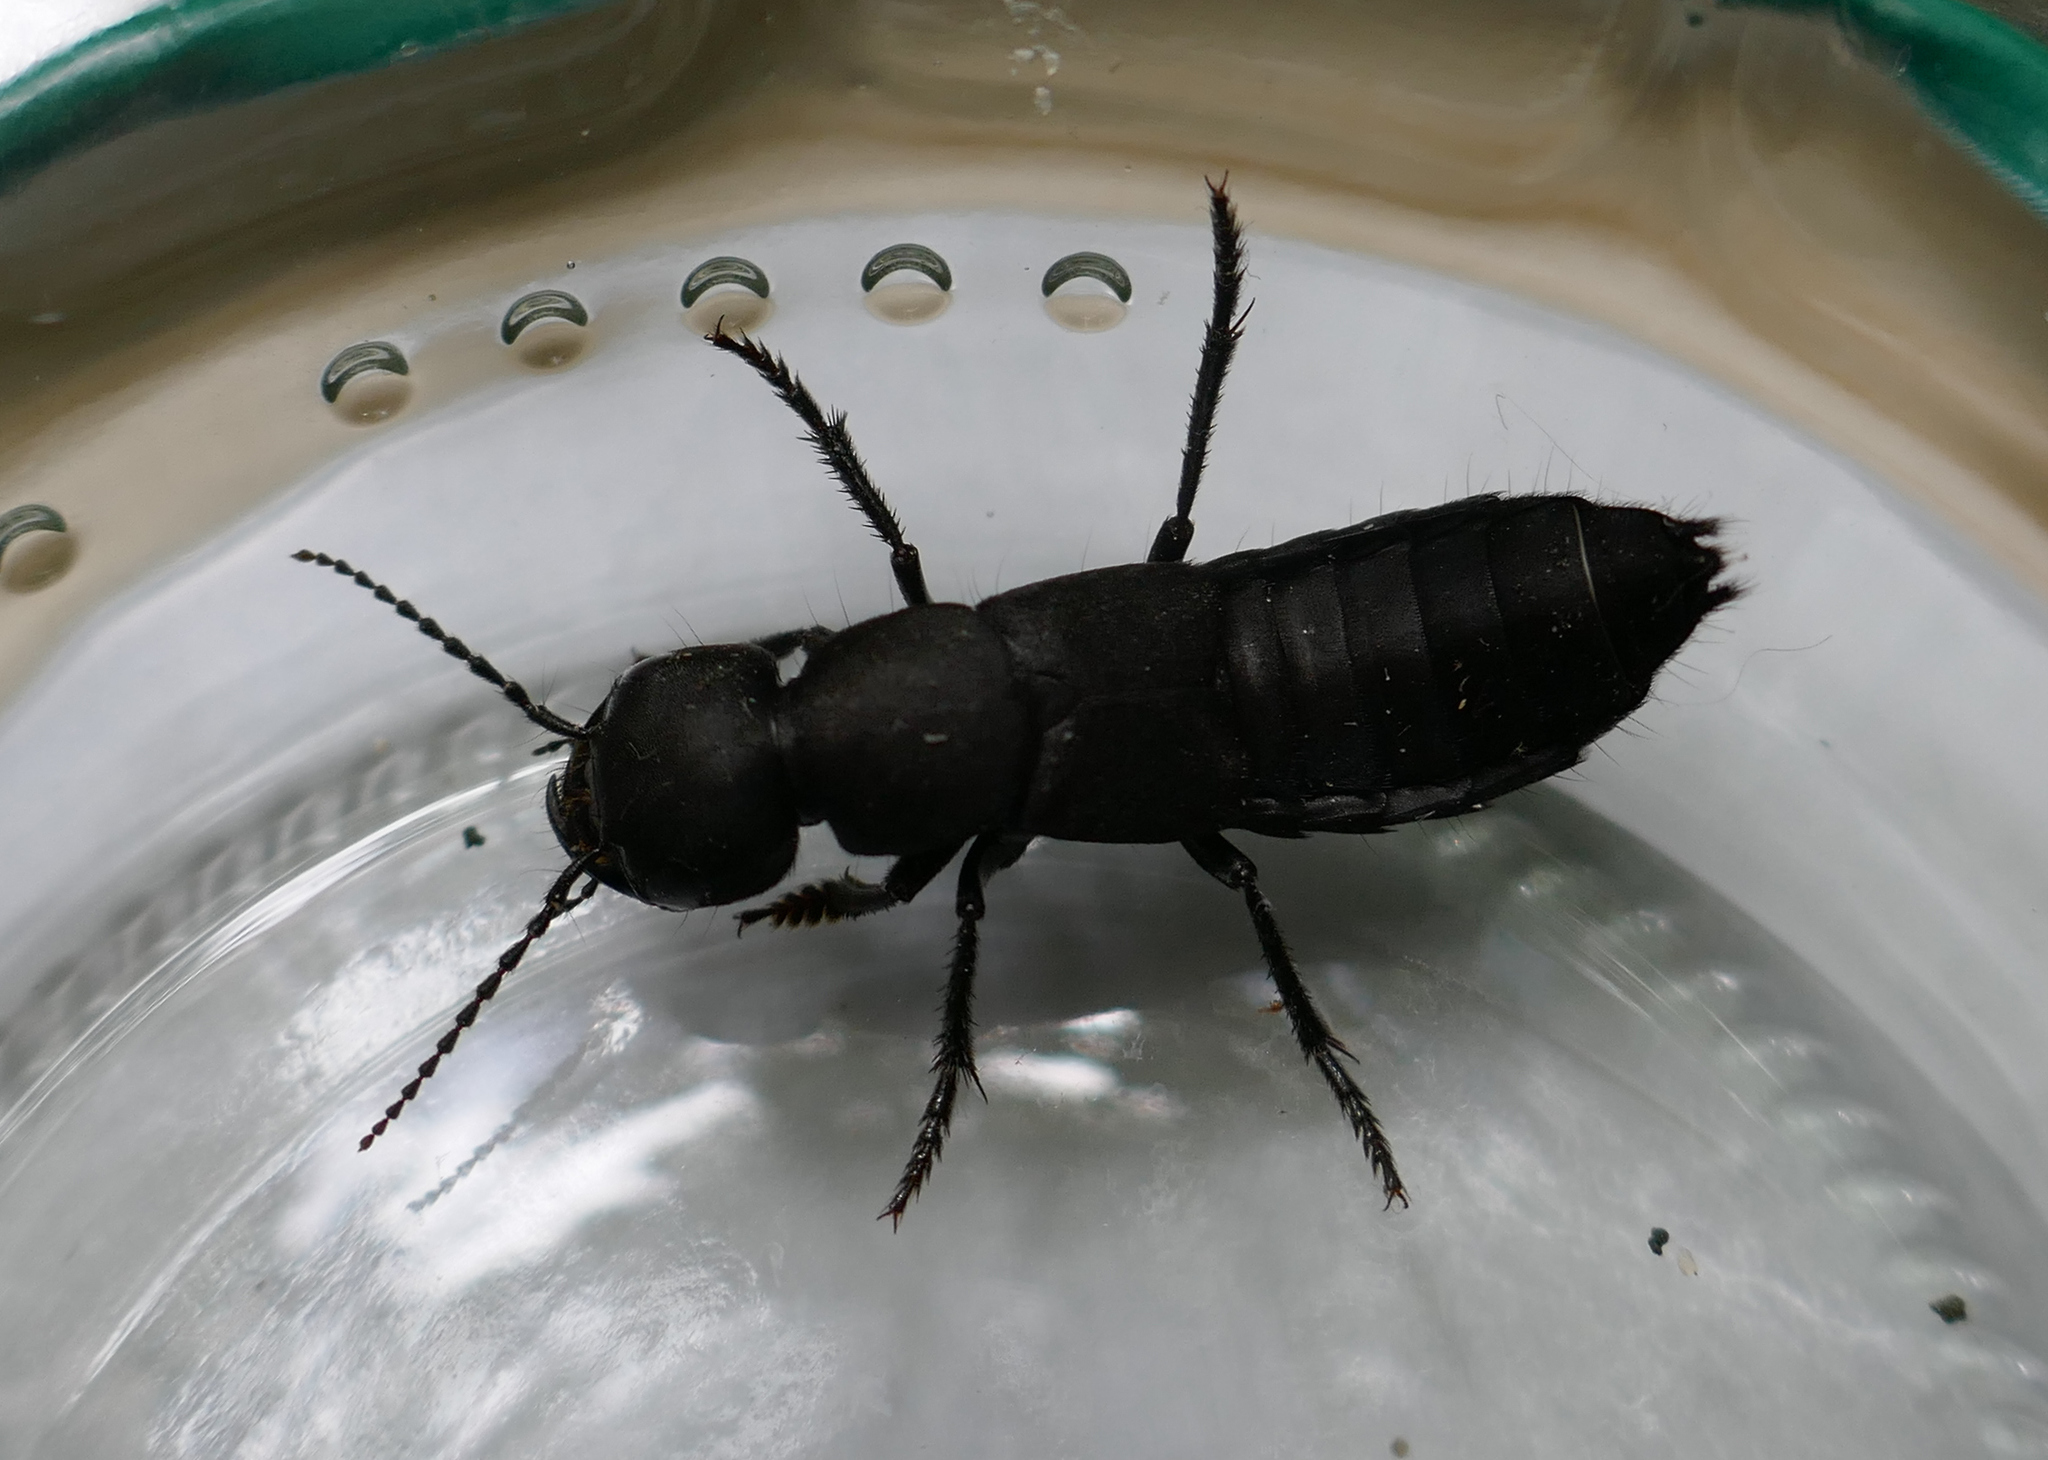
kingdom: Animalia
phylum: Arthropoda
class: Insecta
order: Coleoptera
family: Staphylinidae
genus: Ocypus
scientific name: Ocypus olens
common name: Devil's coach-horse
